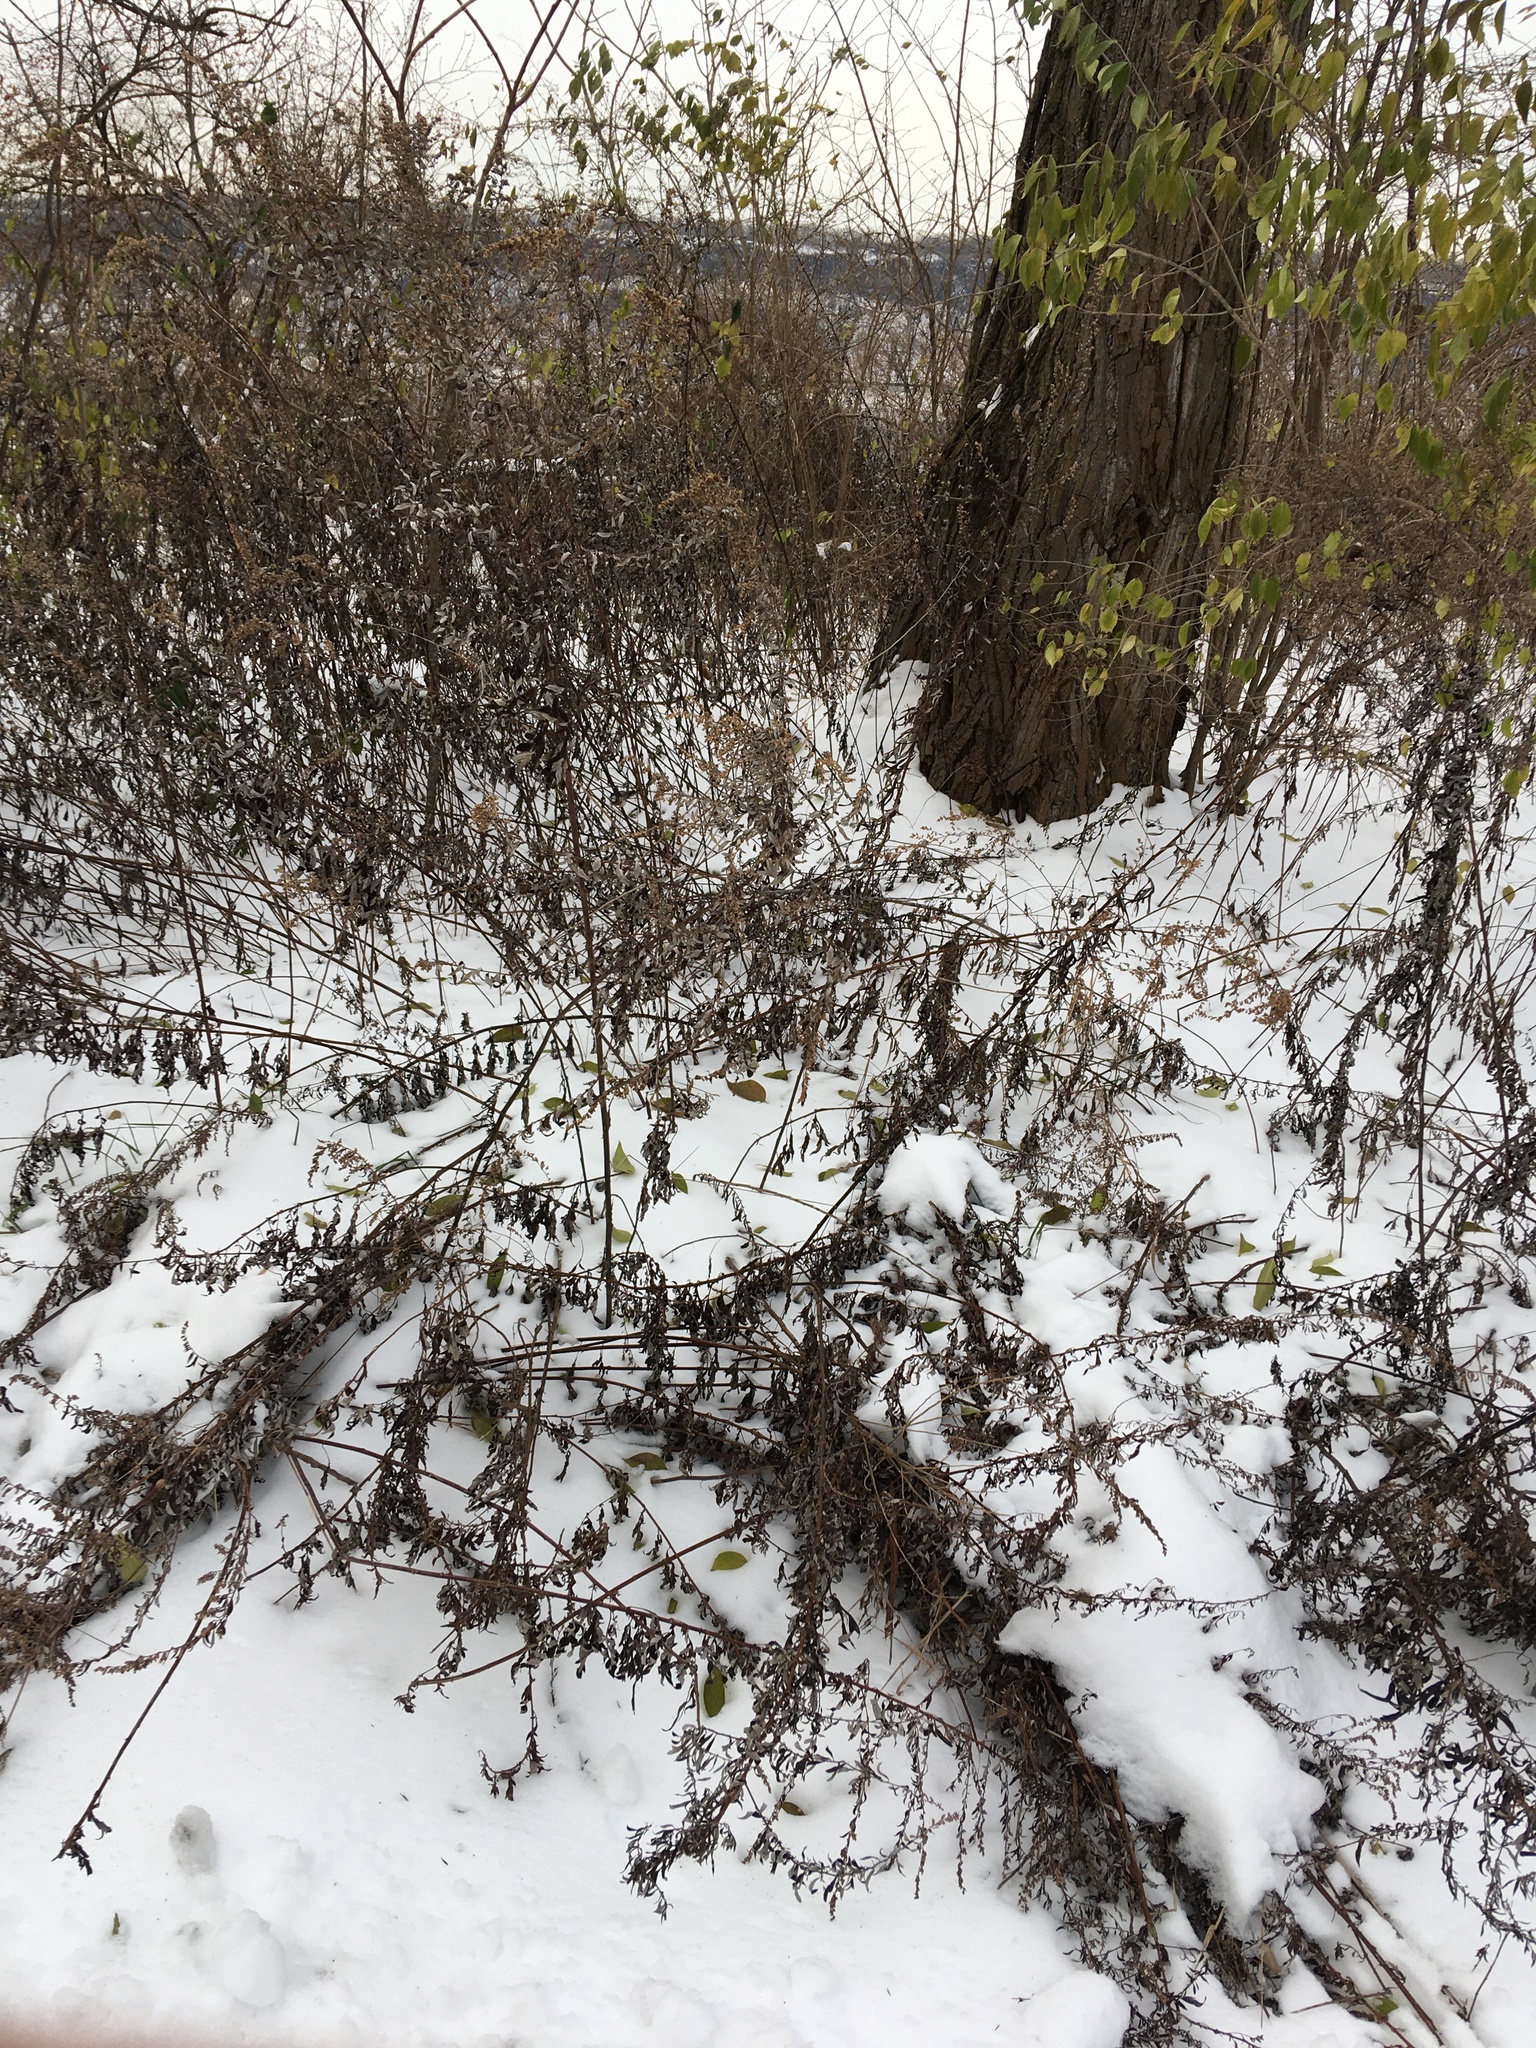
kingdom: Plantae
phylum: Tracheophyta
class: Magnoliopsida
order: Asterales
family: Asteraceae
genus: Artemisia
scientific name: Artemisia vulgaris
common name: Mugwort
